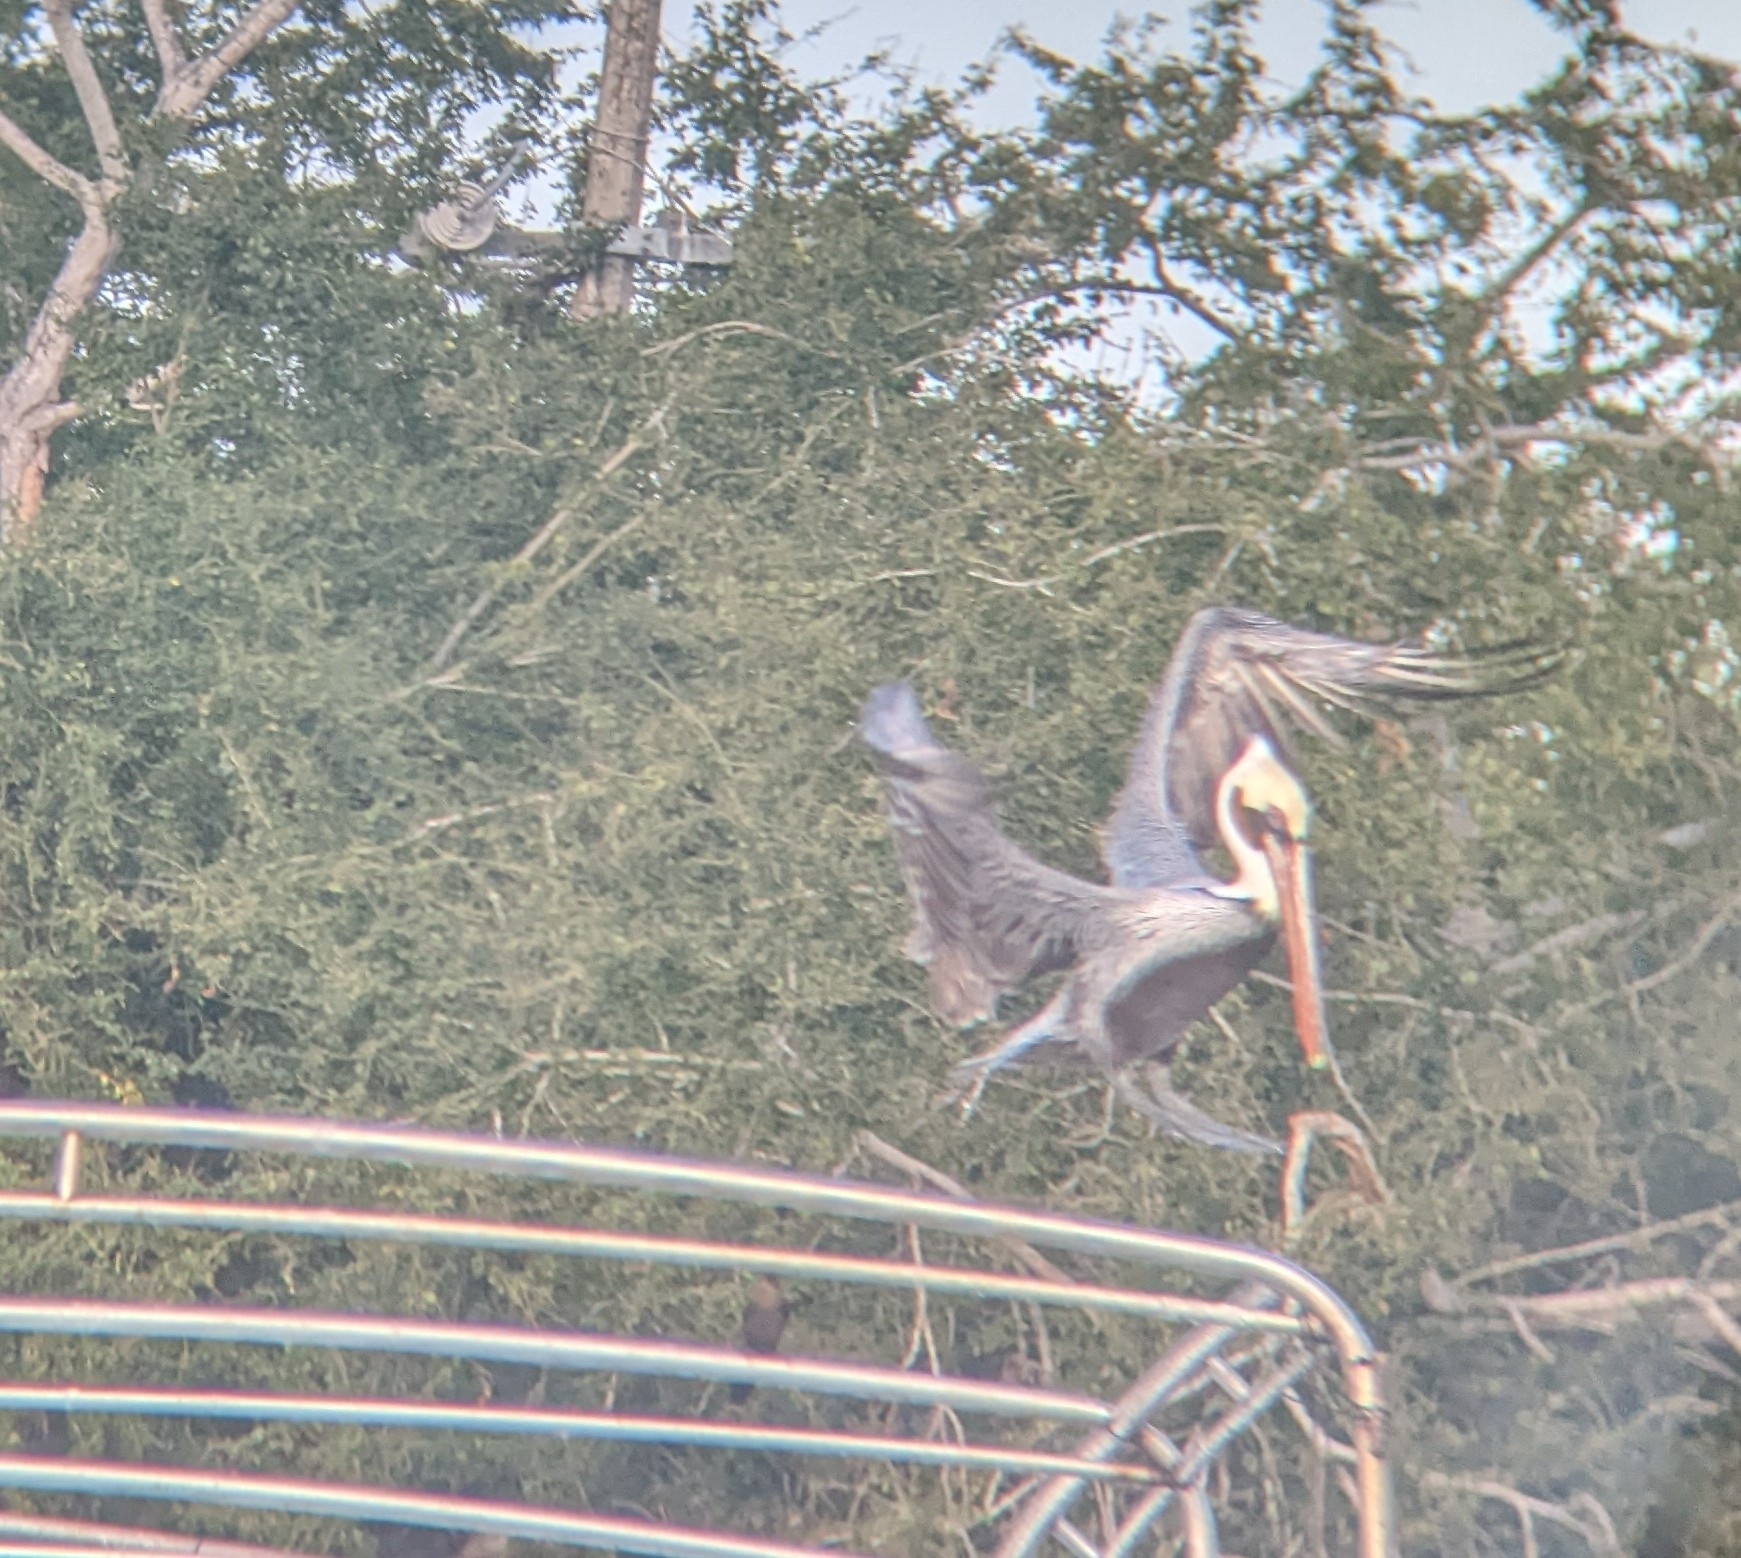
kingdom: Animalia
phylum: Chordata
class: Aves
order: Pelecaniformes
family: Pelecanidae
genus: Pelecanus
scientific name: Pelecanus occidentalis
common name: Brown pelican
